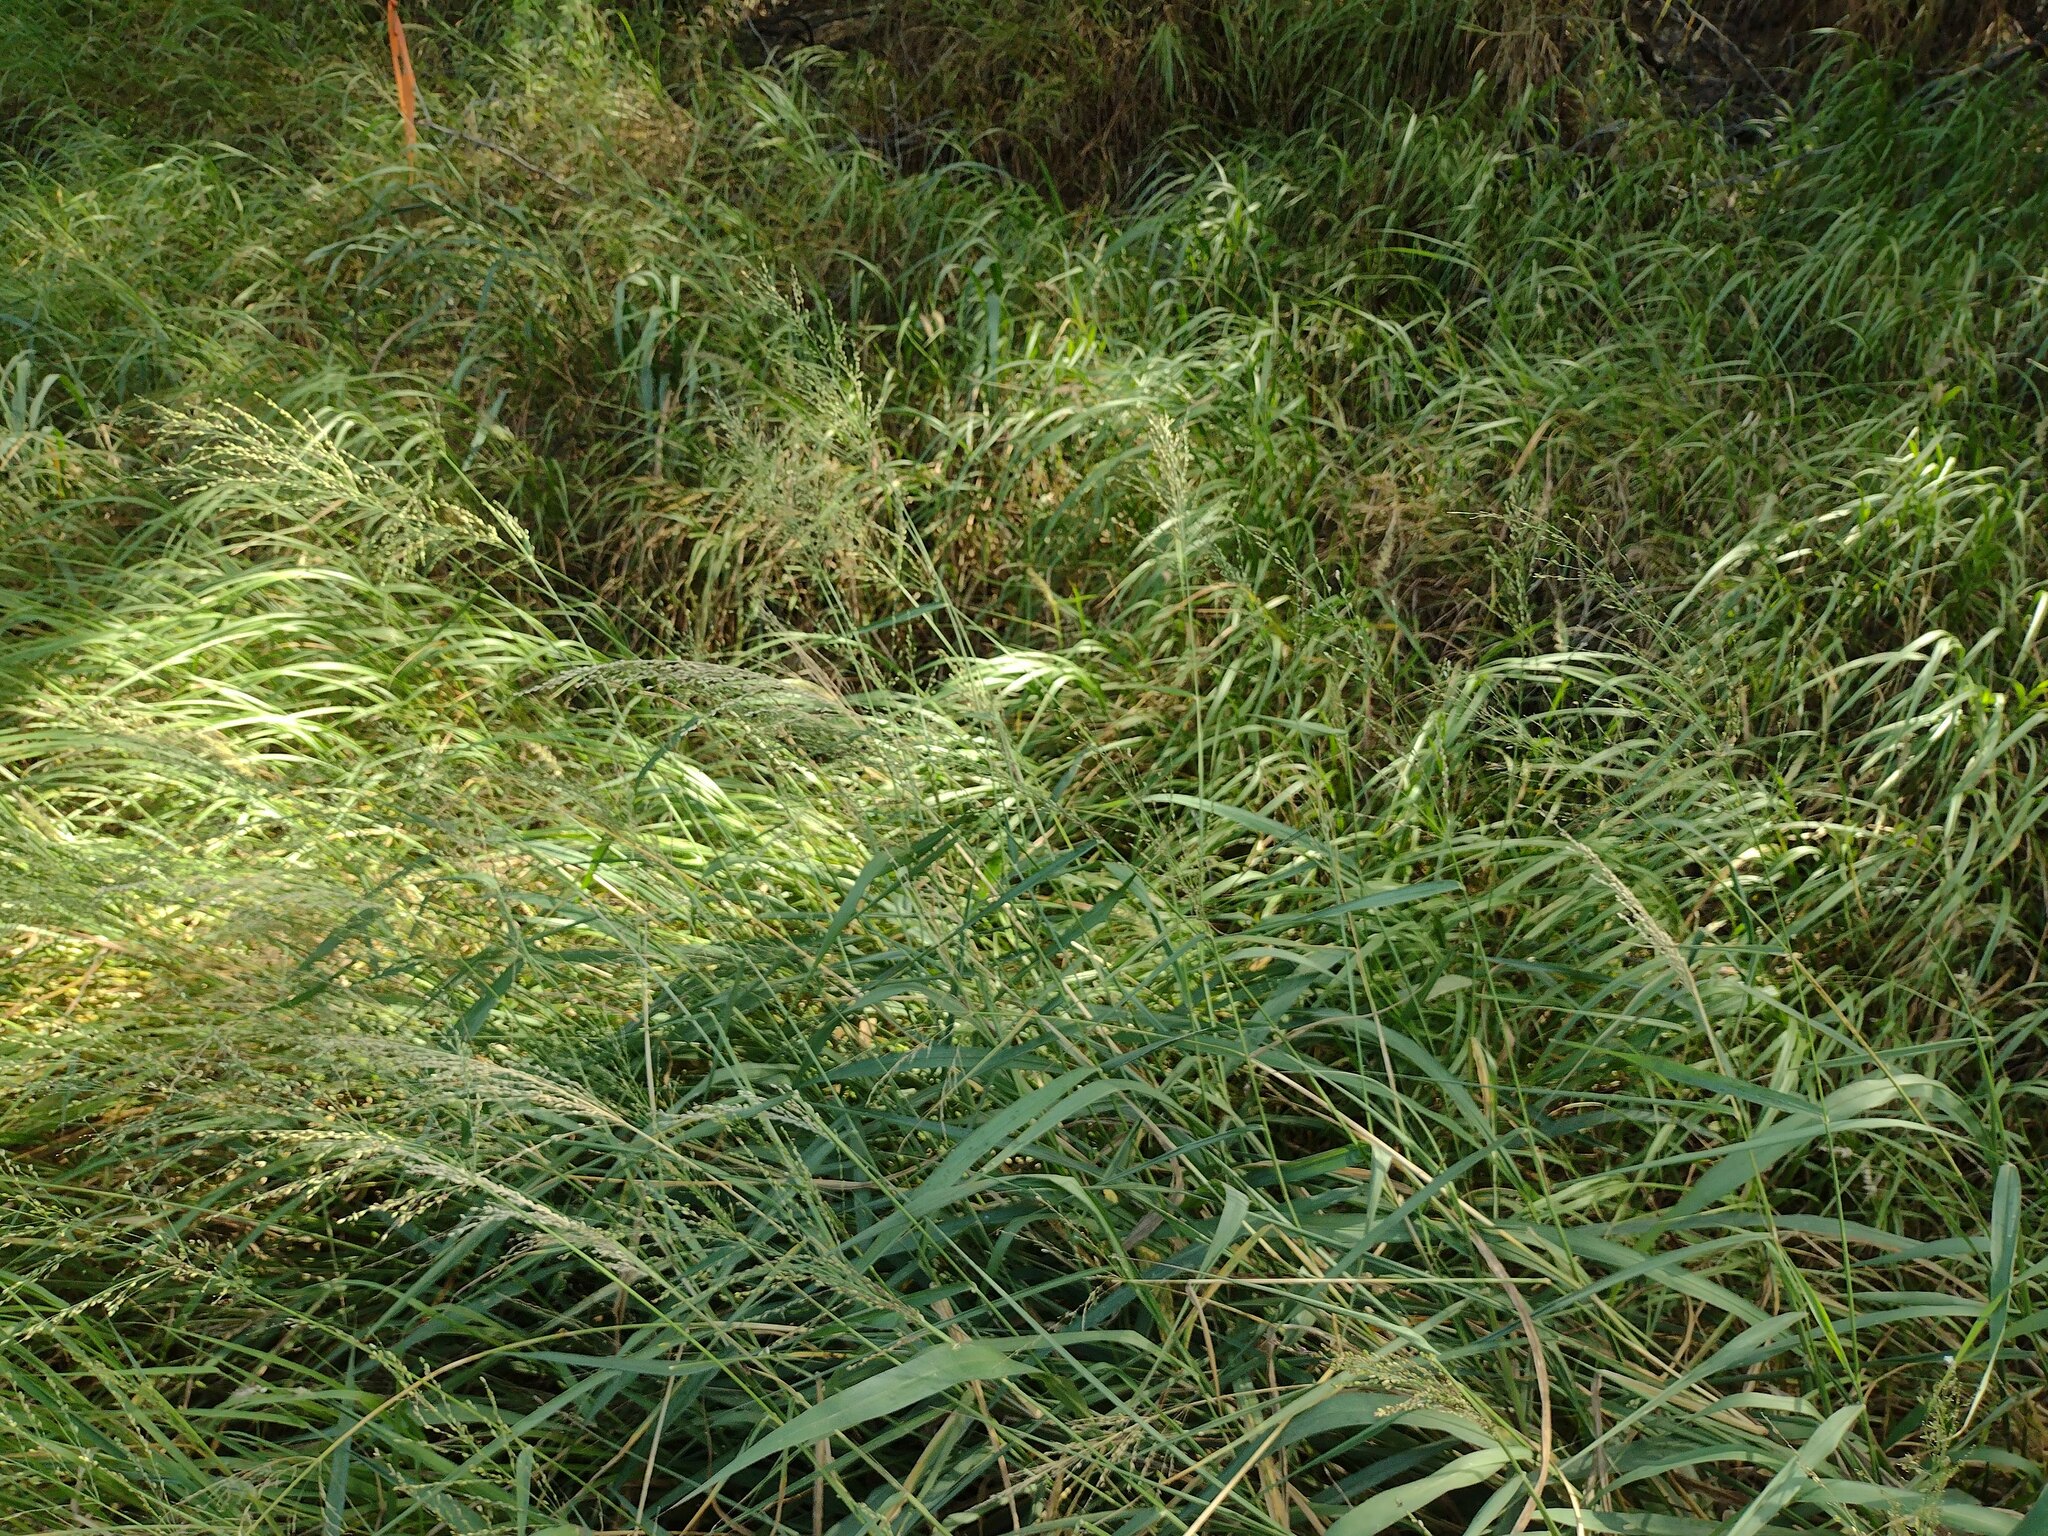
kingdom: Plantae
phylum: Tracheophyta
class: Liliopsida
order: Poales
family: Poaceae
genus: Megathyrsus
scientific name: Megathyrsus maximus
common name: Guineagrass
